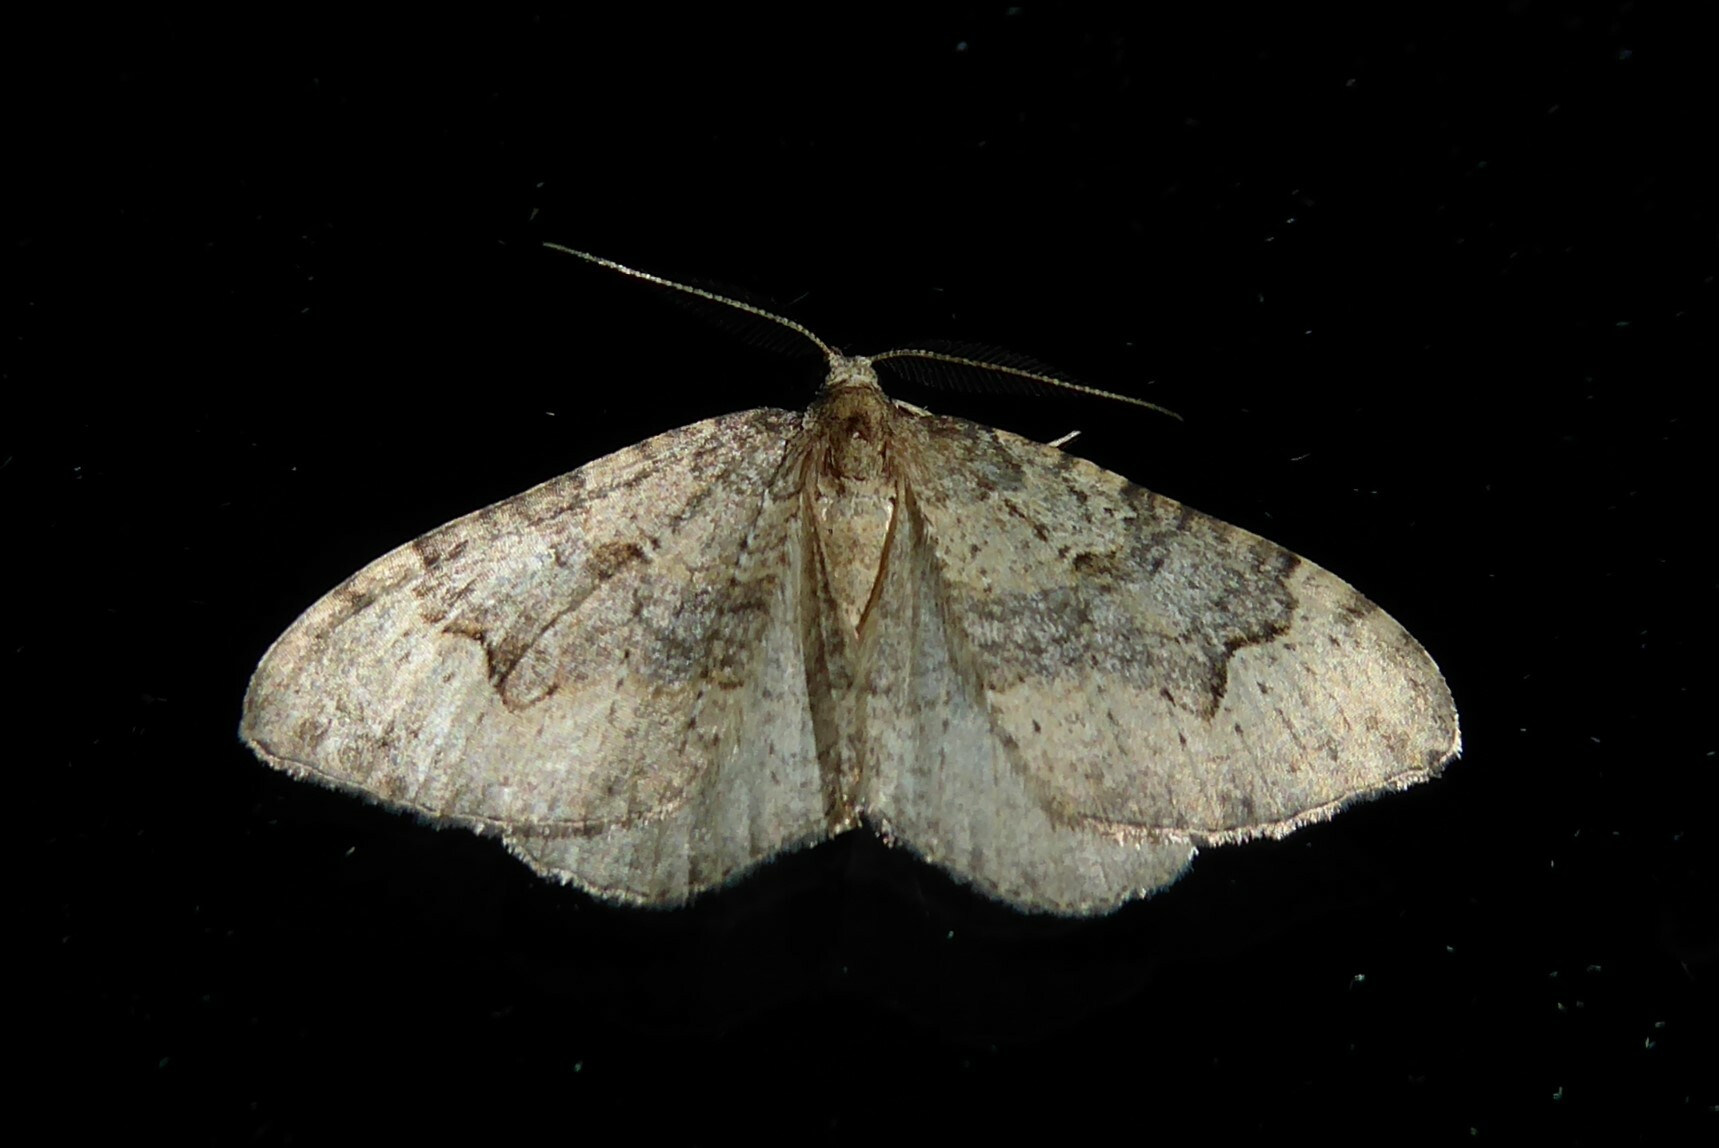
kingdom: Animalia
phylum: Arthropoda
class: Insecta
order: Lepidoptera
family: Geometridae
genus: Epyaxa
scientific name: Epyaxa rosearia
